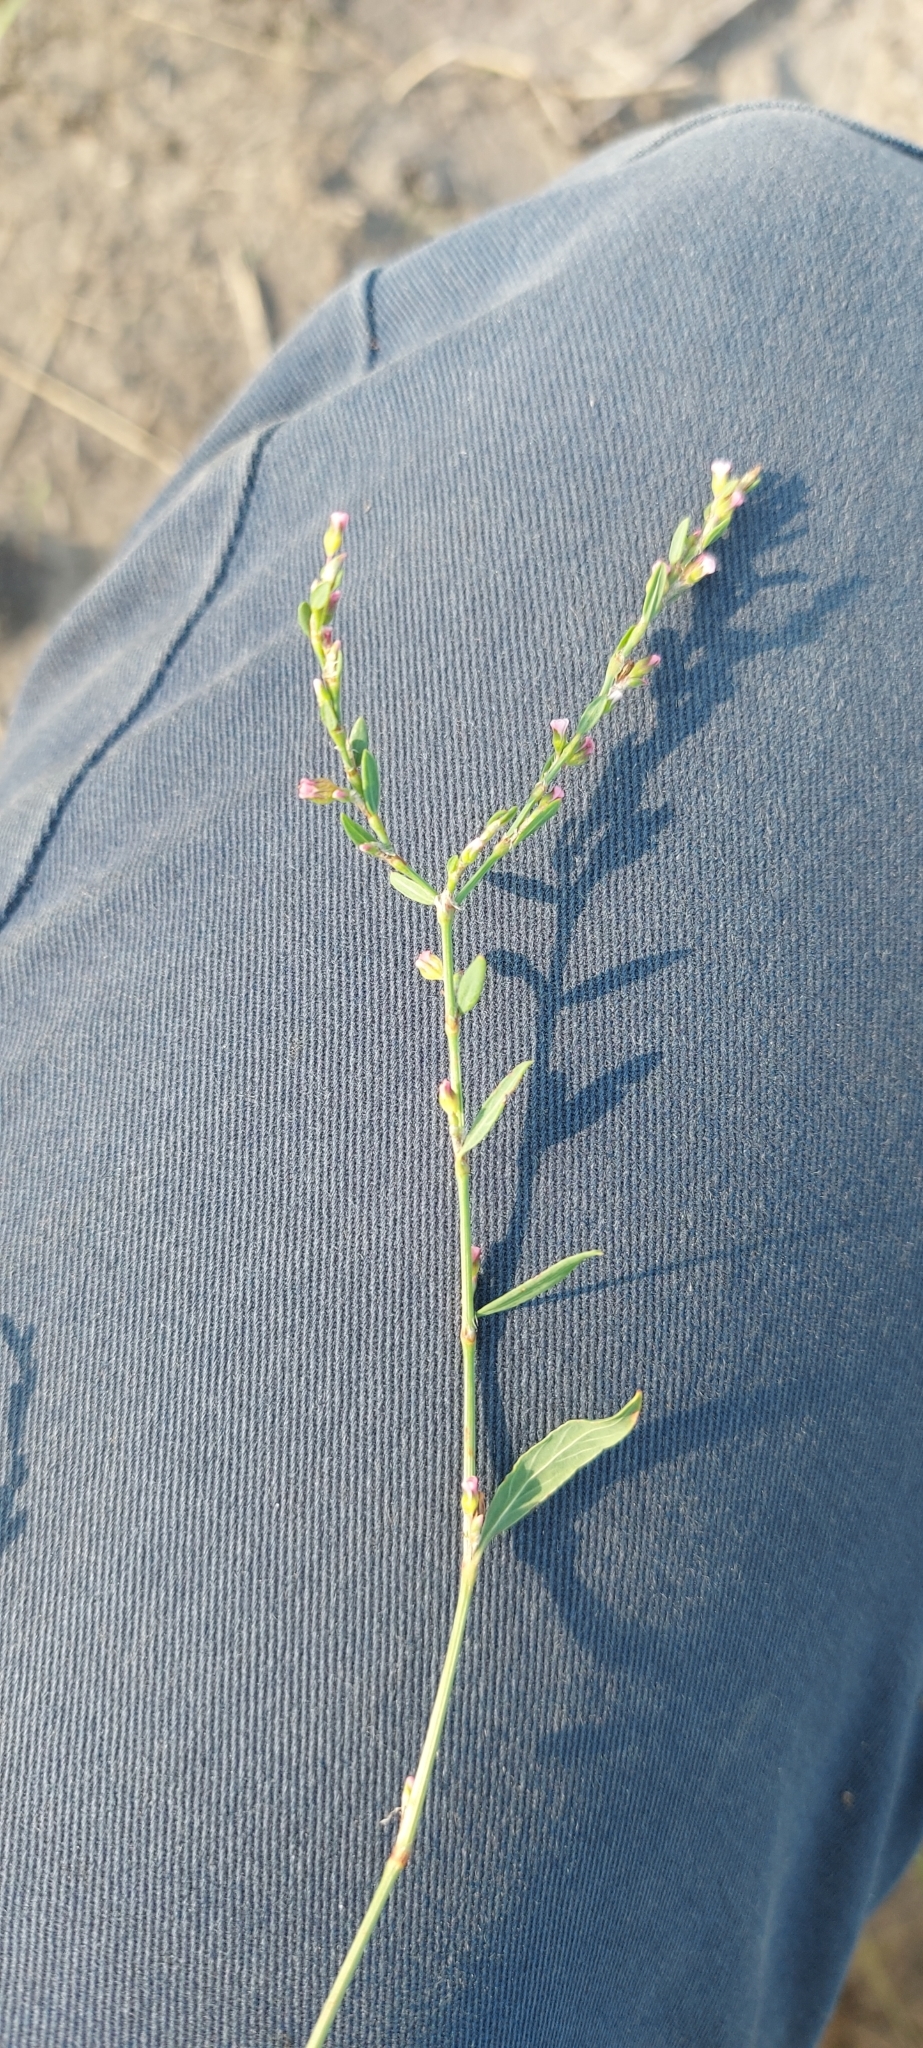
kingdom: Plantae
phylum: Tracheophyta
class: Magnoliopsida
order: Caryophyllales
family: Polygonaceae
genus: Polygonum
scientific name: Polygonum
